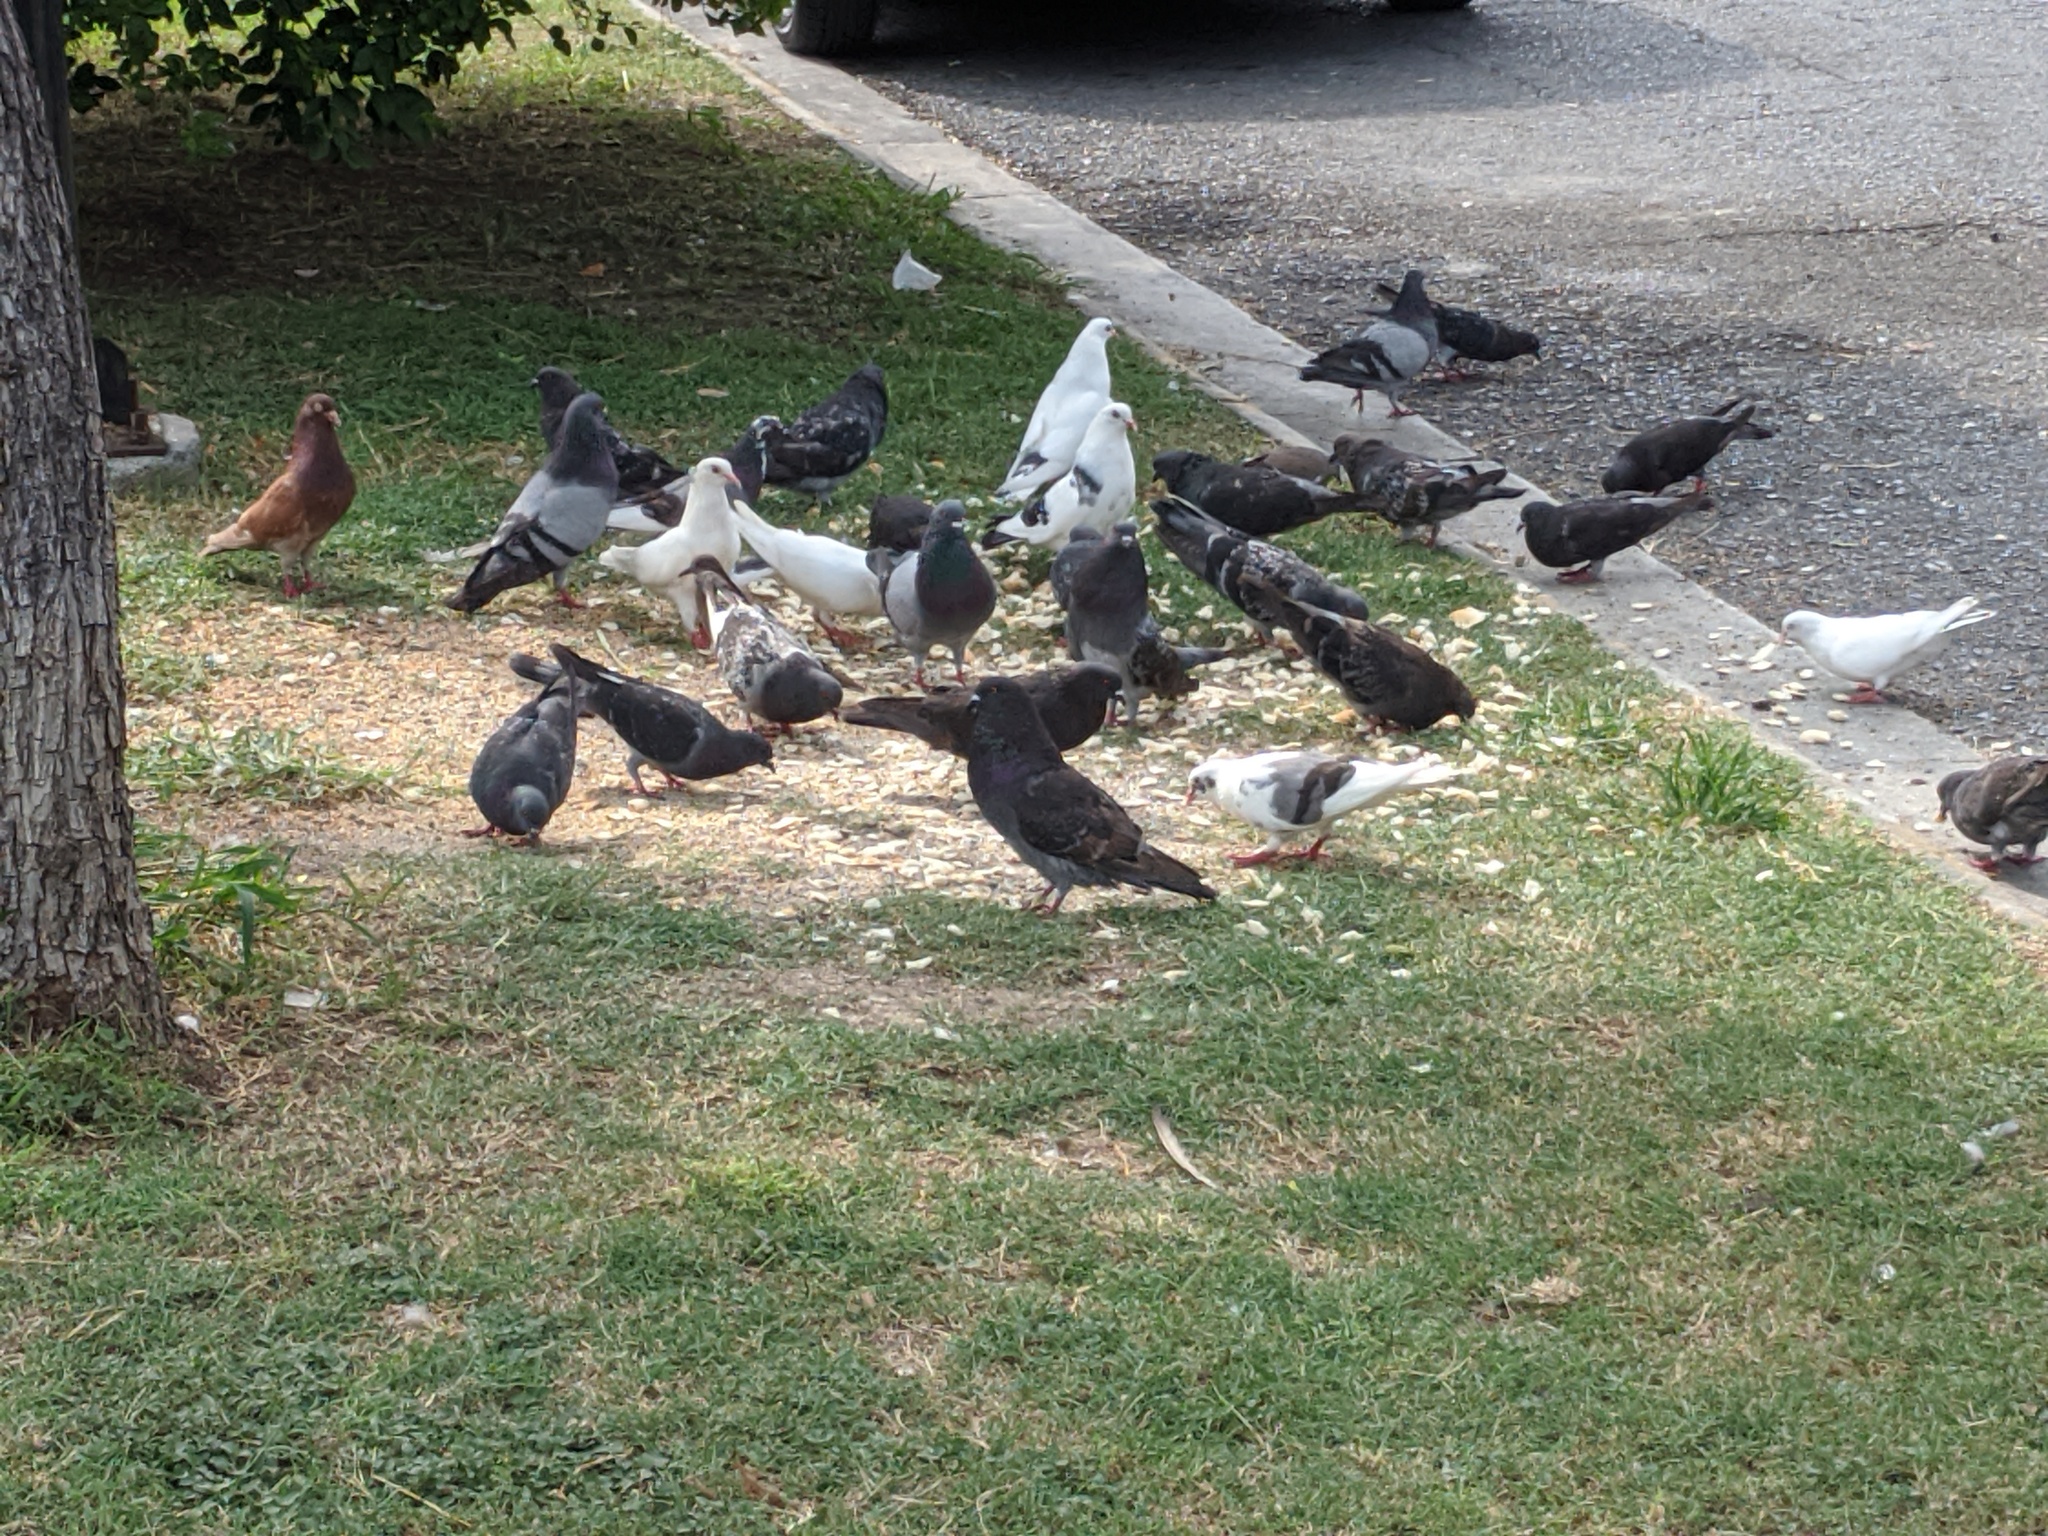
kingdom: Animalia
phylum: Chordata
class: Aves
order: Columbiformes
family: Columbidae
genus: Columba
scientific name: Columba livia
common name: Rock pigeon
